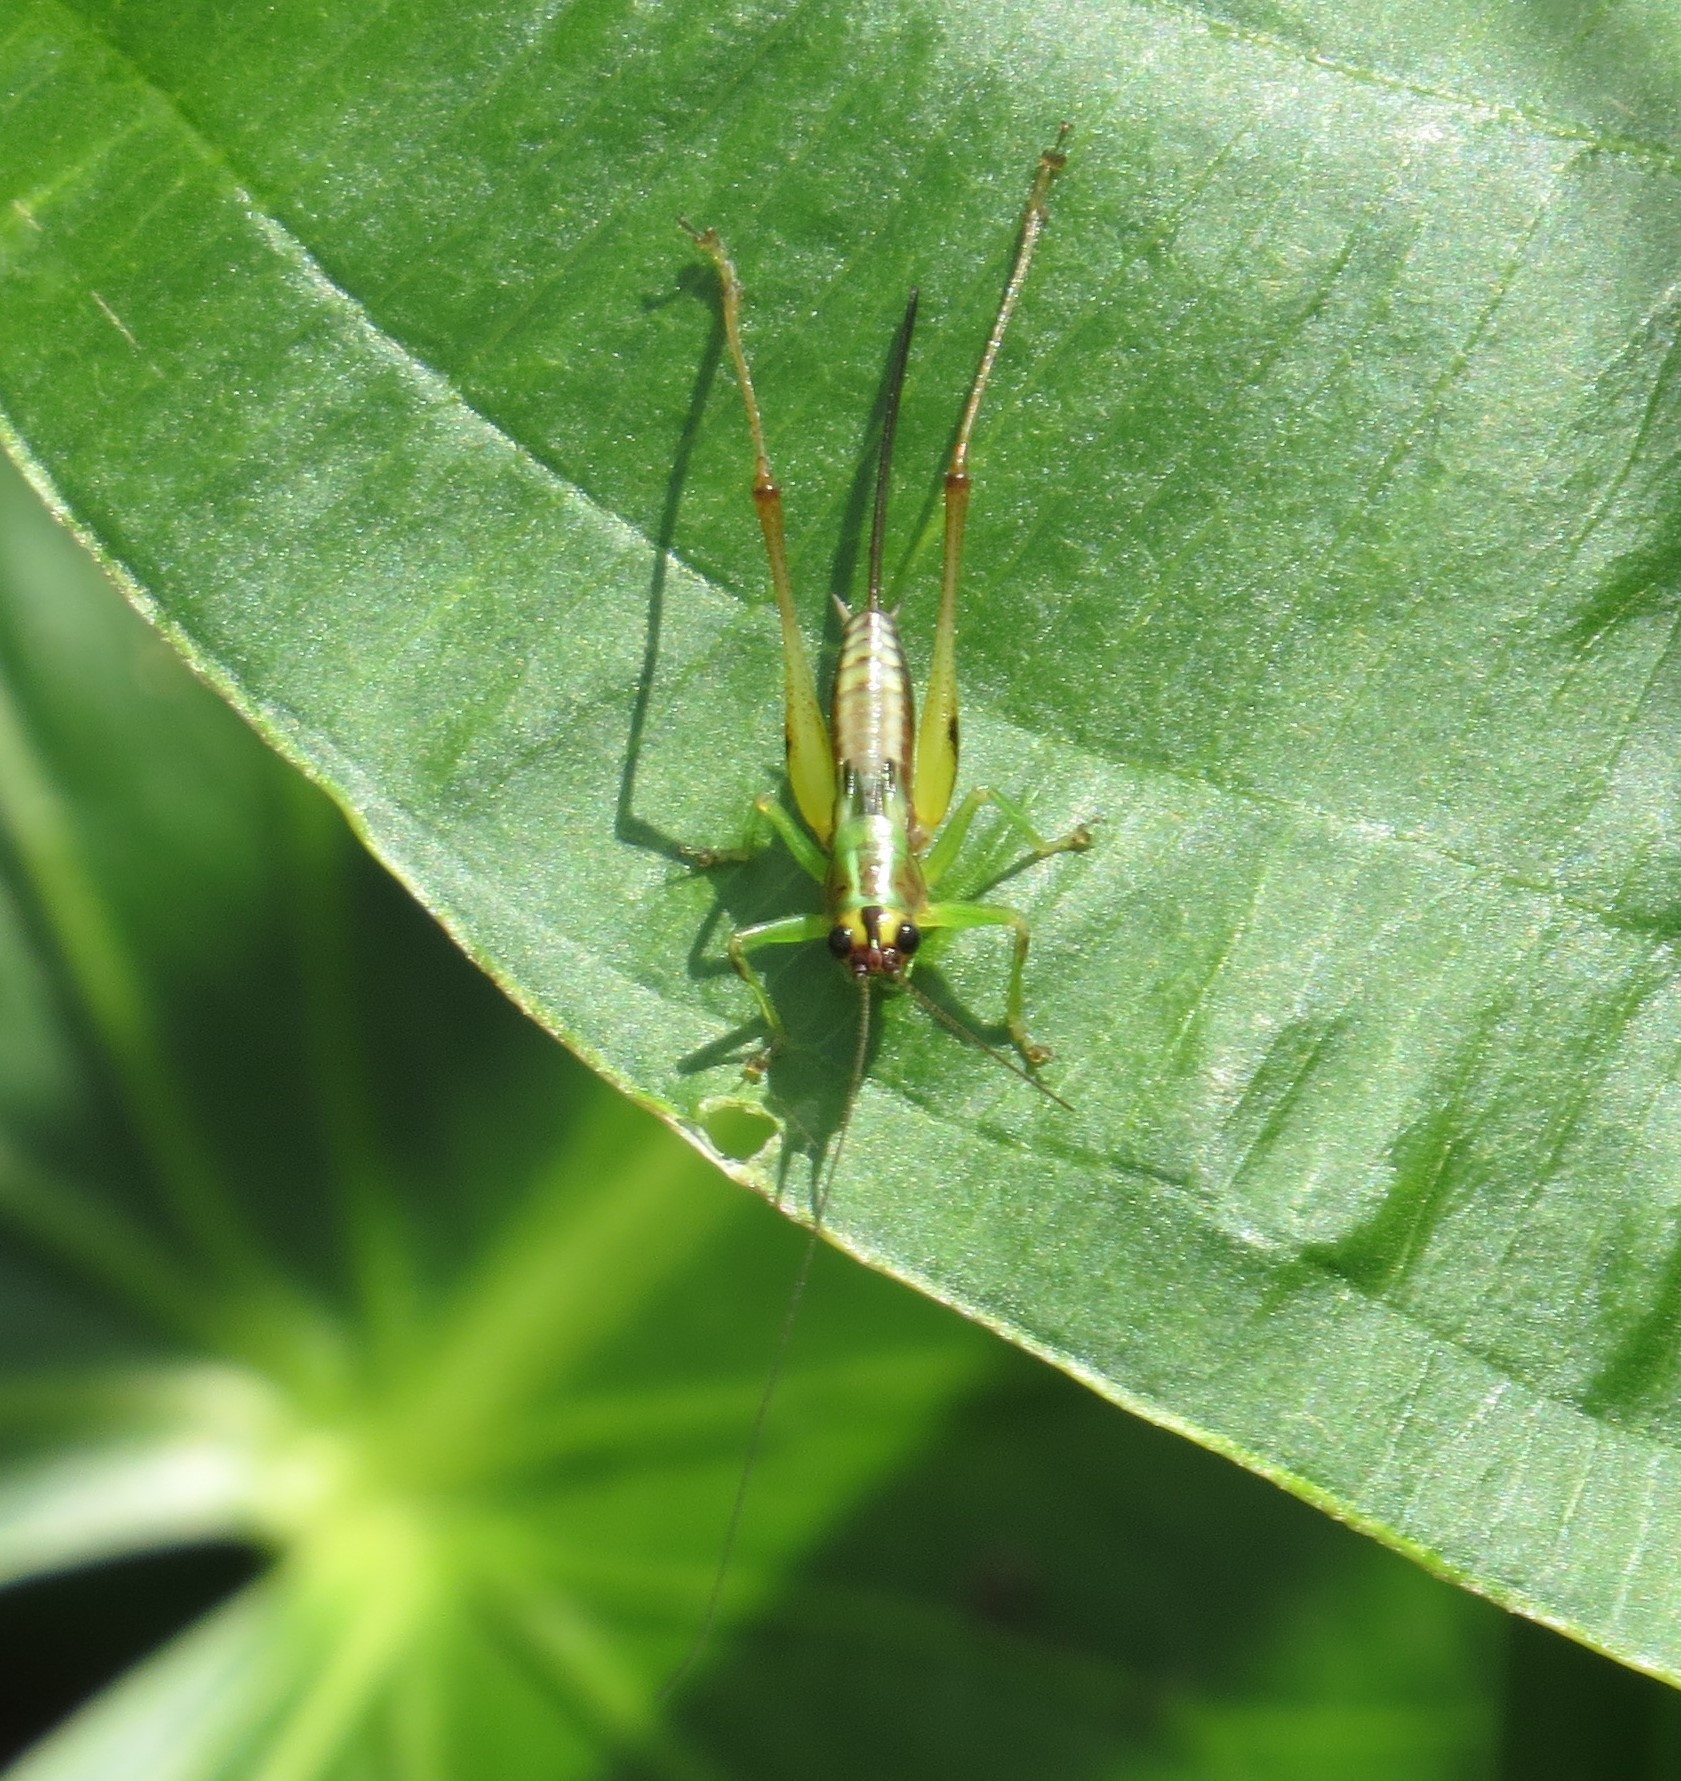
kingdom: Animalia
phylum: Arthropoda
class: Insecta
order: Orthoptera
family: Tettigoniidae
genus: Conocephalus
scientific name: Conocephalus nigropleurum
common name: Black-sided meadow katydid
